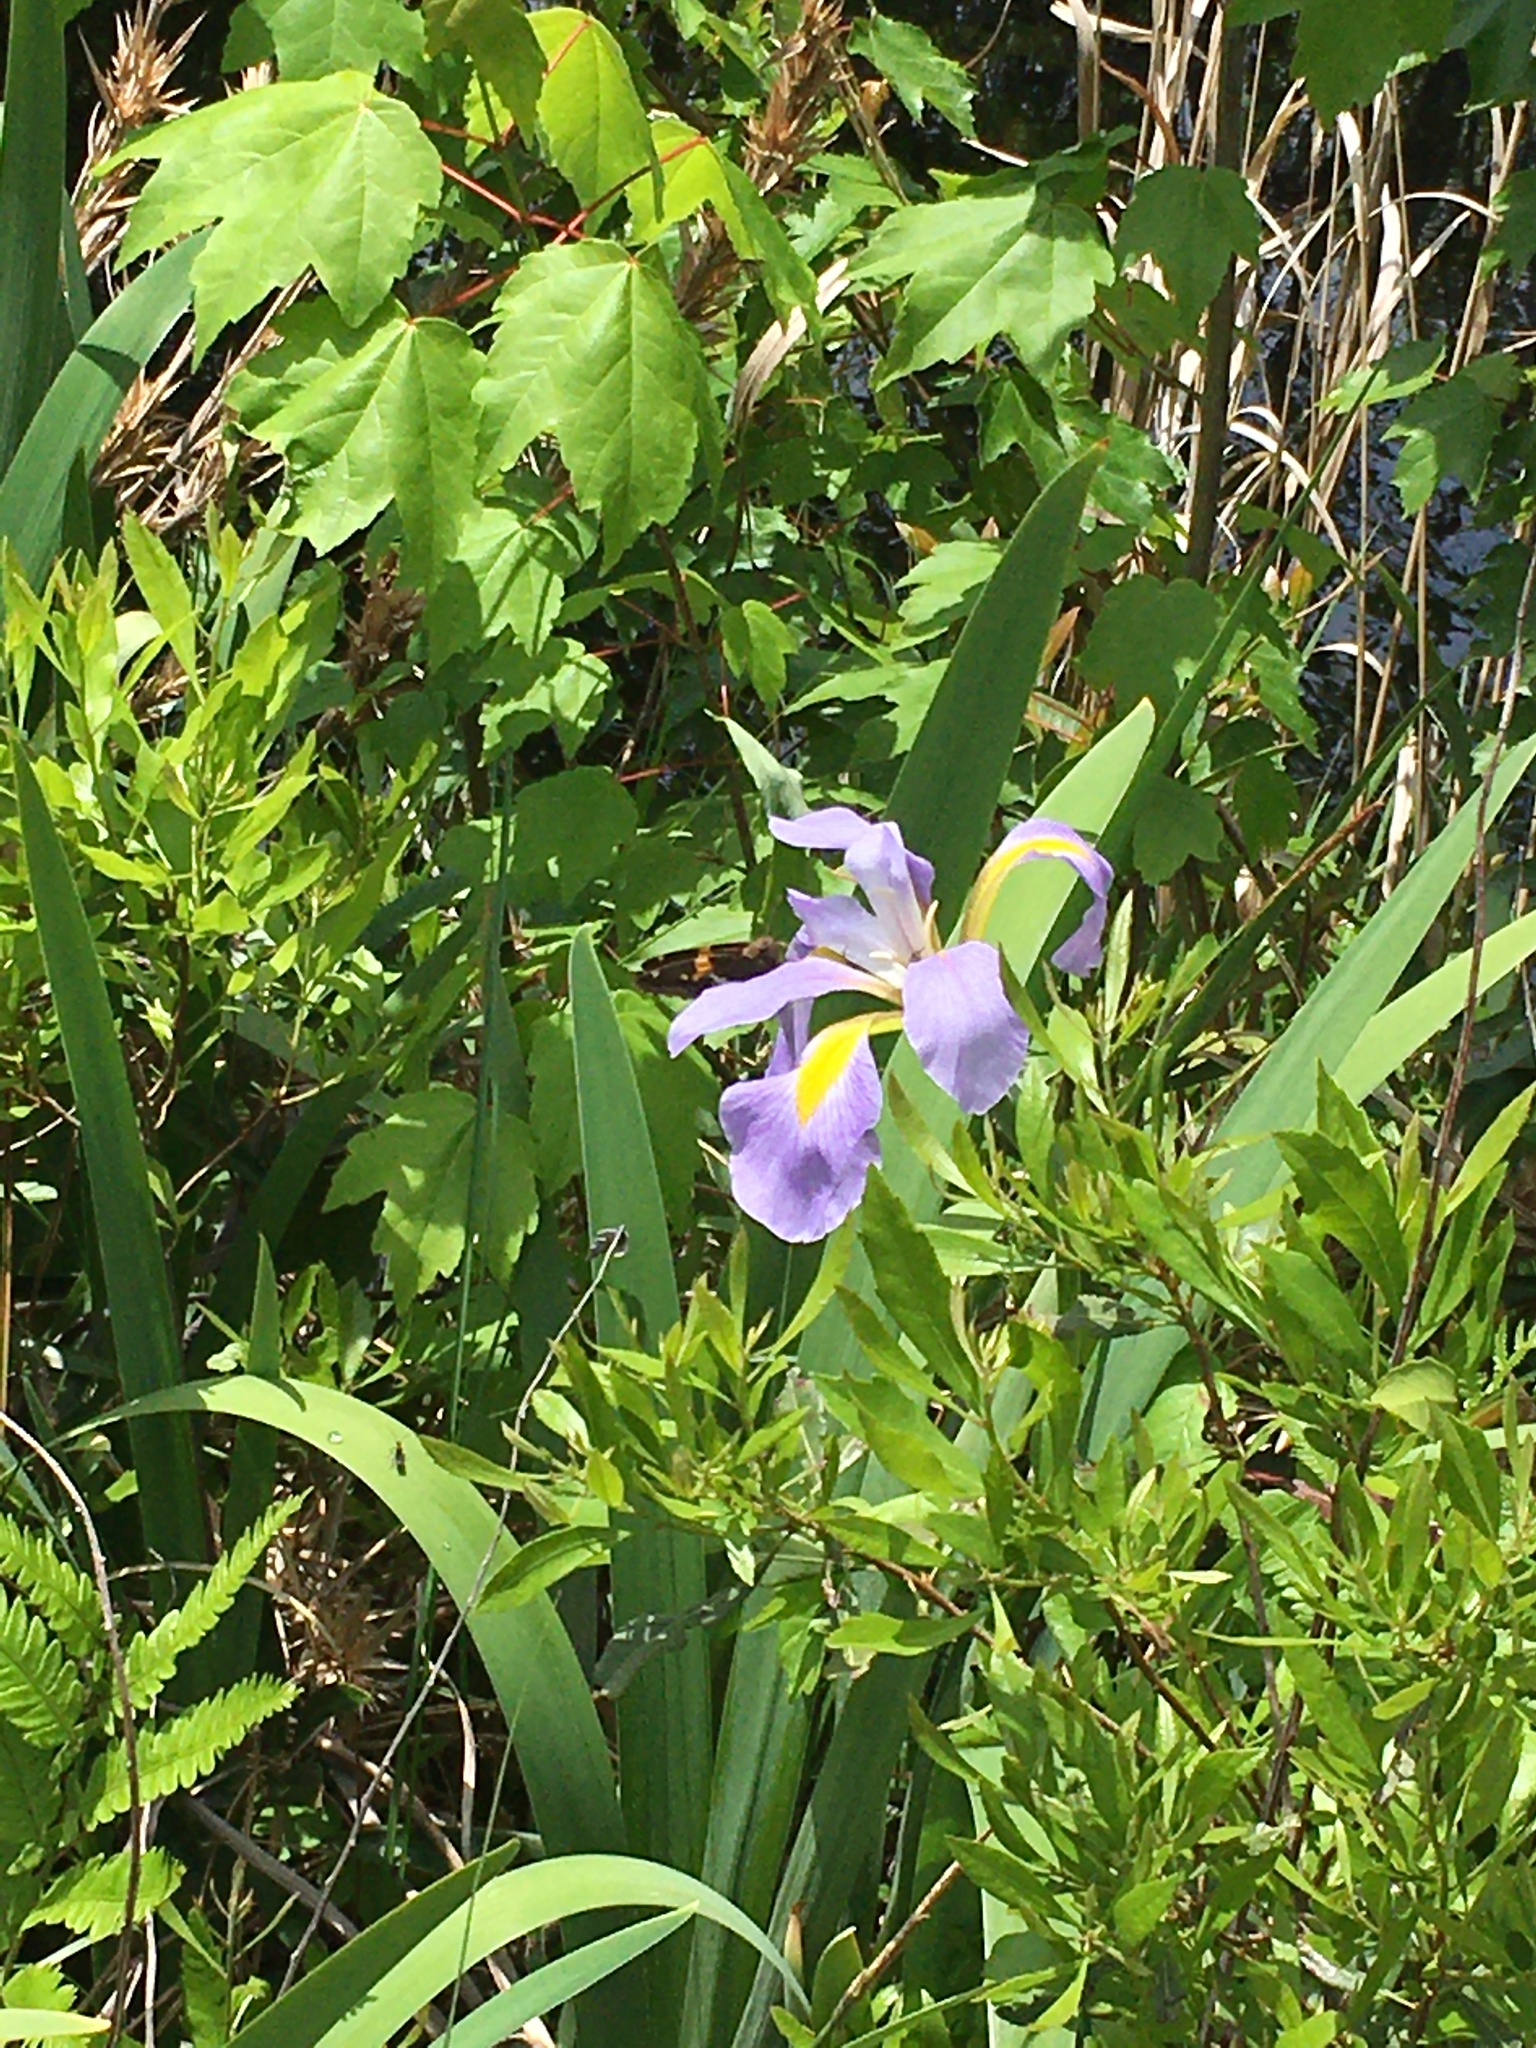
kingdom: Animalia
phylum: Arthropoda
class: Insecta
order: Lepidoptera
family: Hesperiidae
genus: Epargyreus
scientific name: Epargyreus clarus
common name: Silver-spotted skipper
